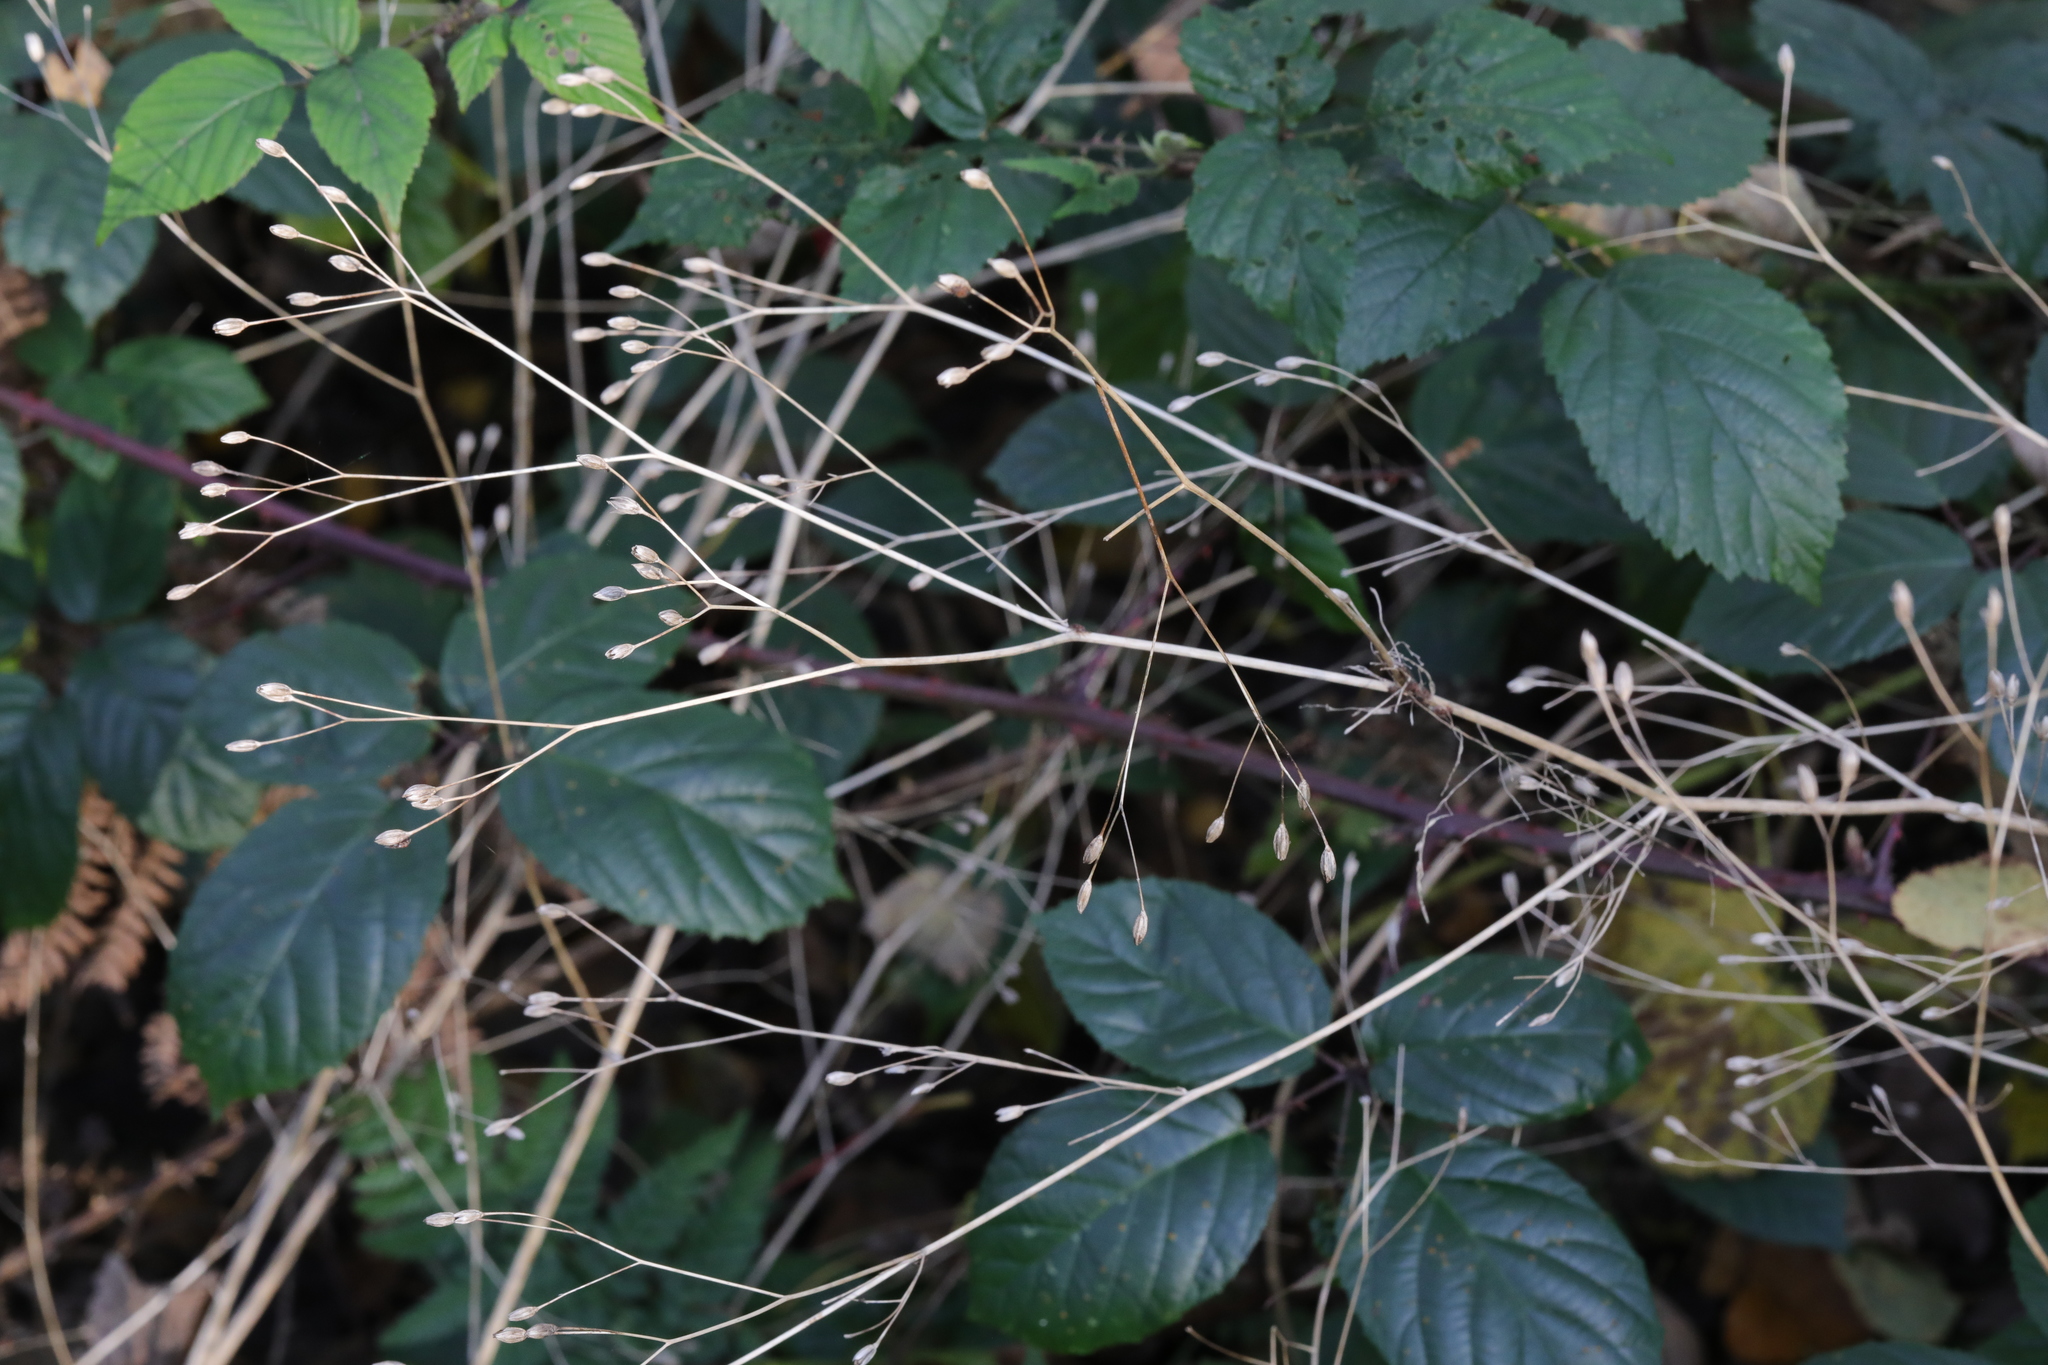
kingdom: Plantae
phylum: Tracheophyta
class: Magnoliopsida
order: Asterales
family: Asteraceae
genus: Lapsana
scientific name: Lapsana communis
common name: Nipplewort
